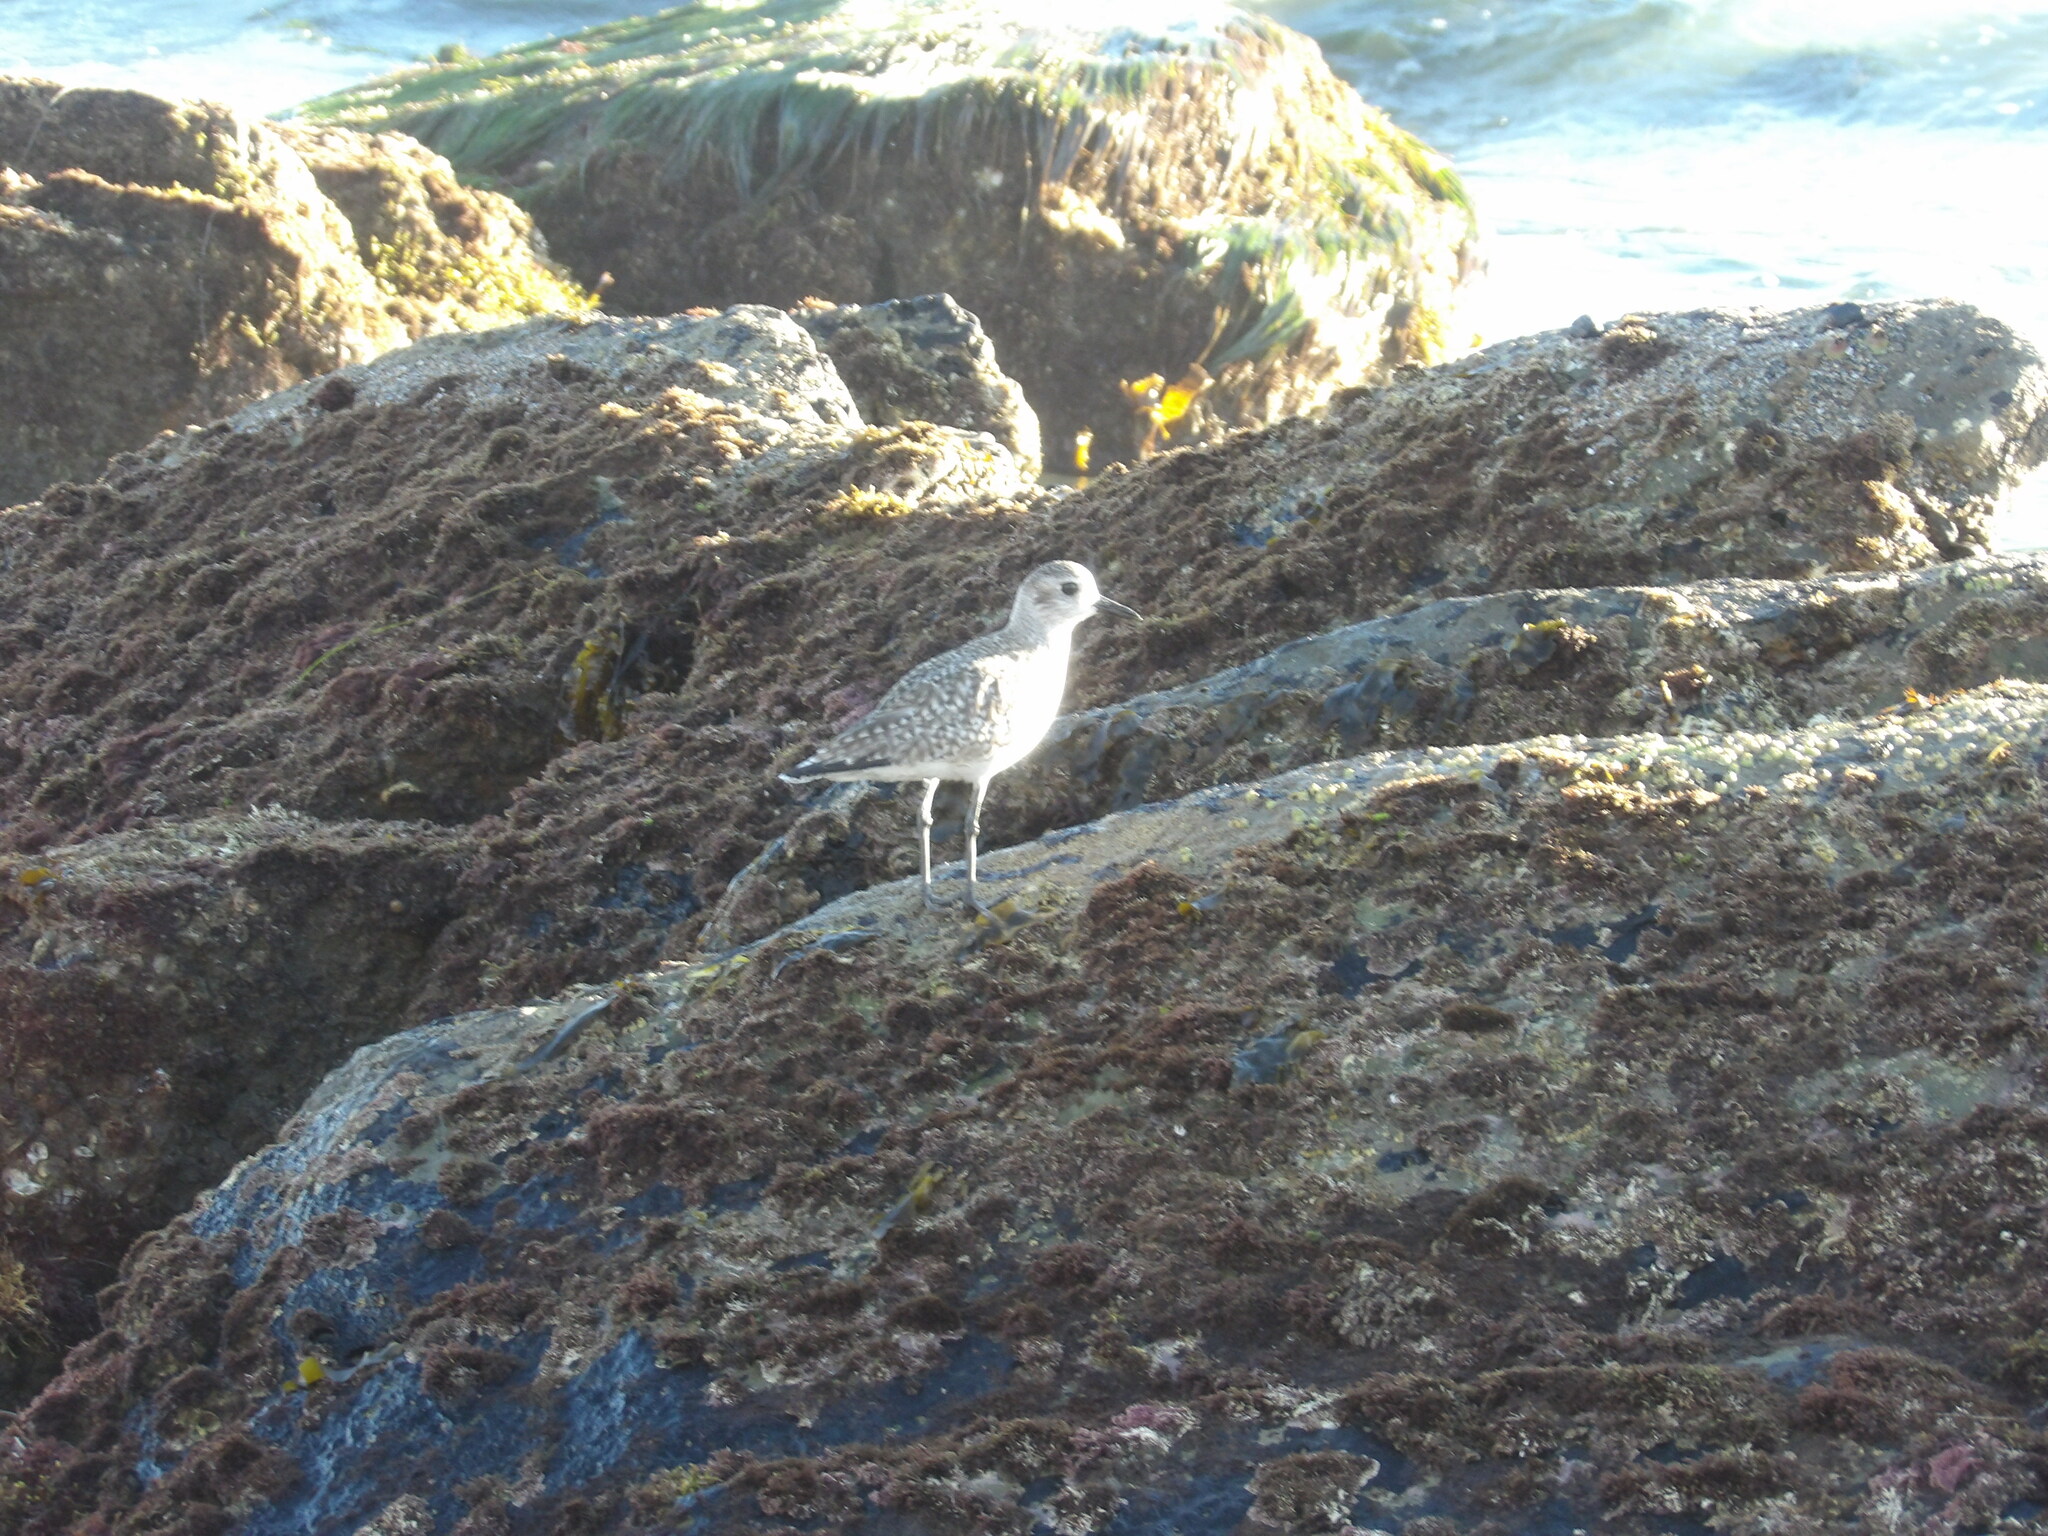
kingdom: Animalia
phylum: Chordata
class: Aves
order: Charadriiformes
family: Charadriidae
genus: Pluvialis
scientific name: Pluvialis squatarola
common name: Grey plover
